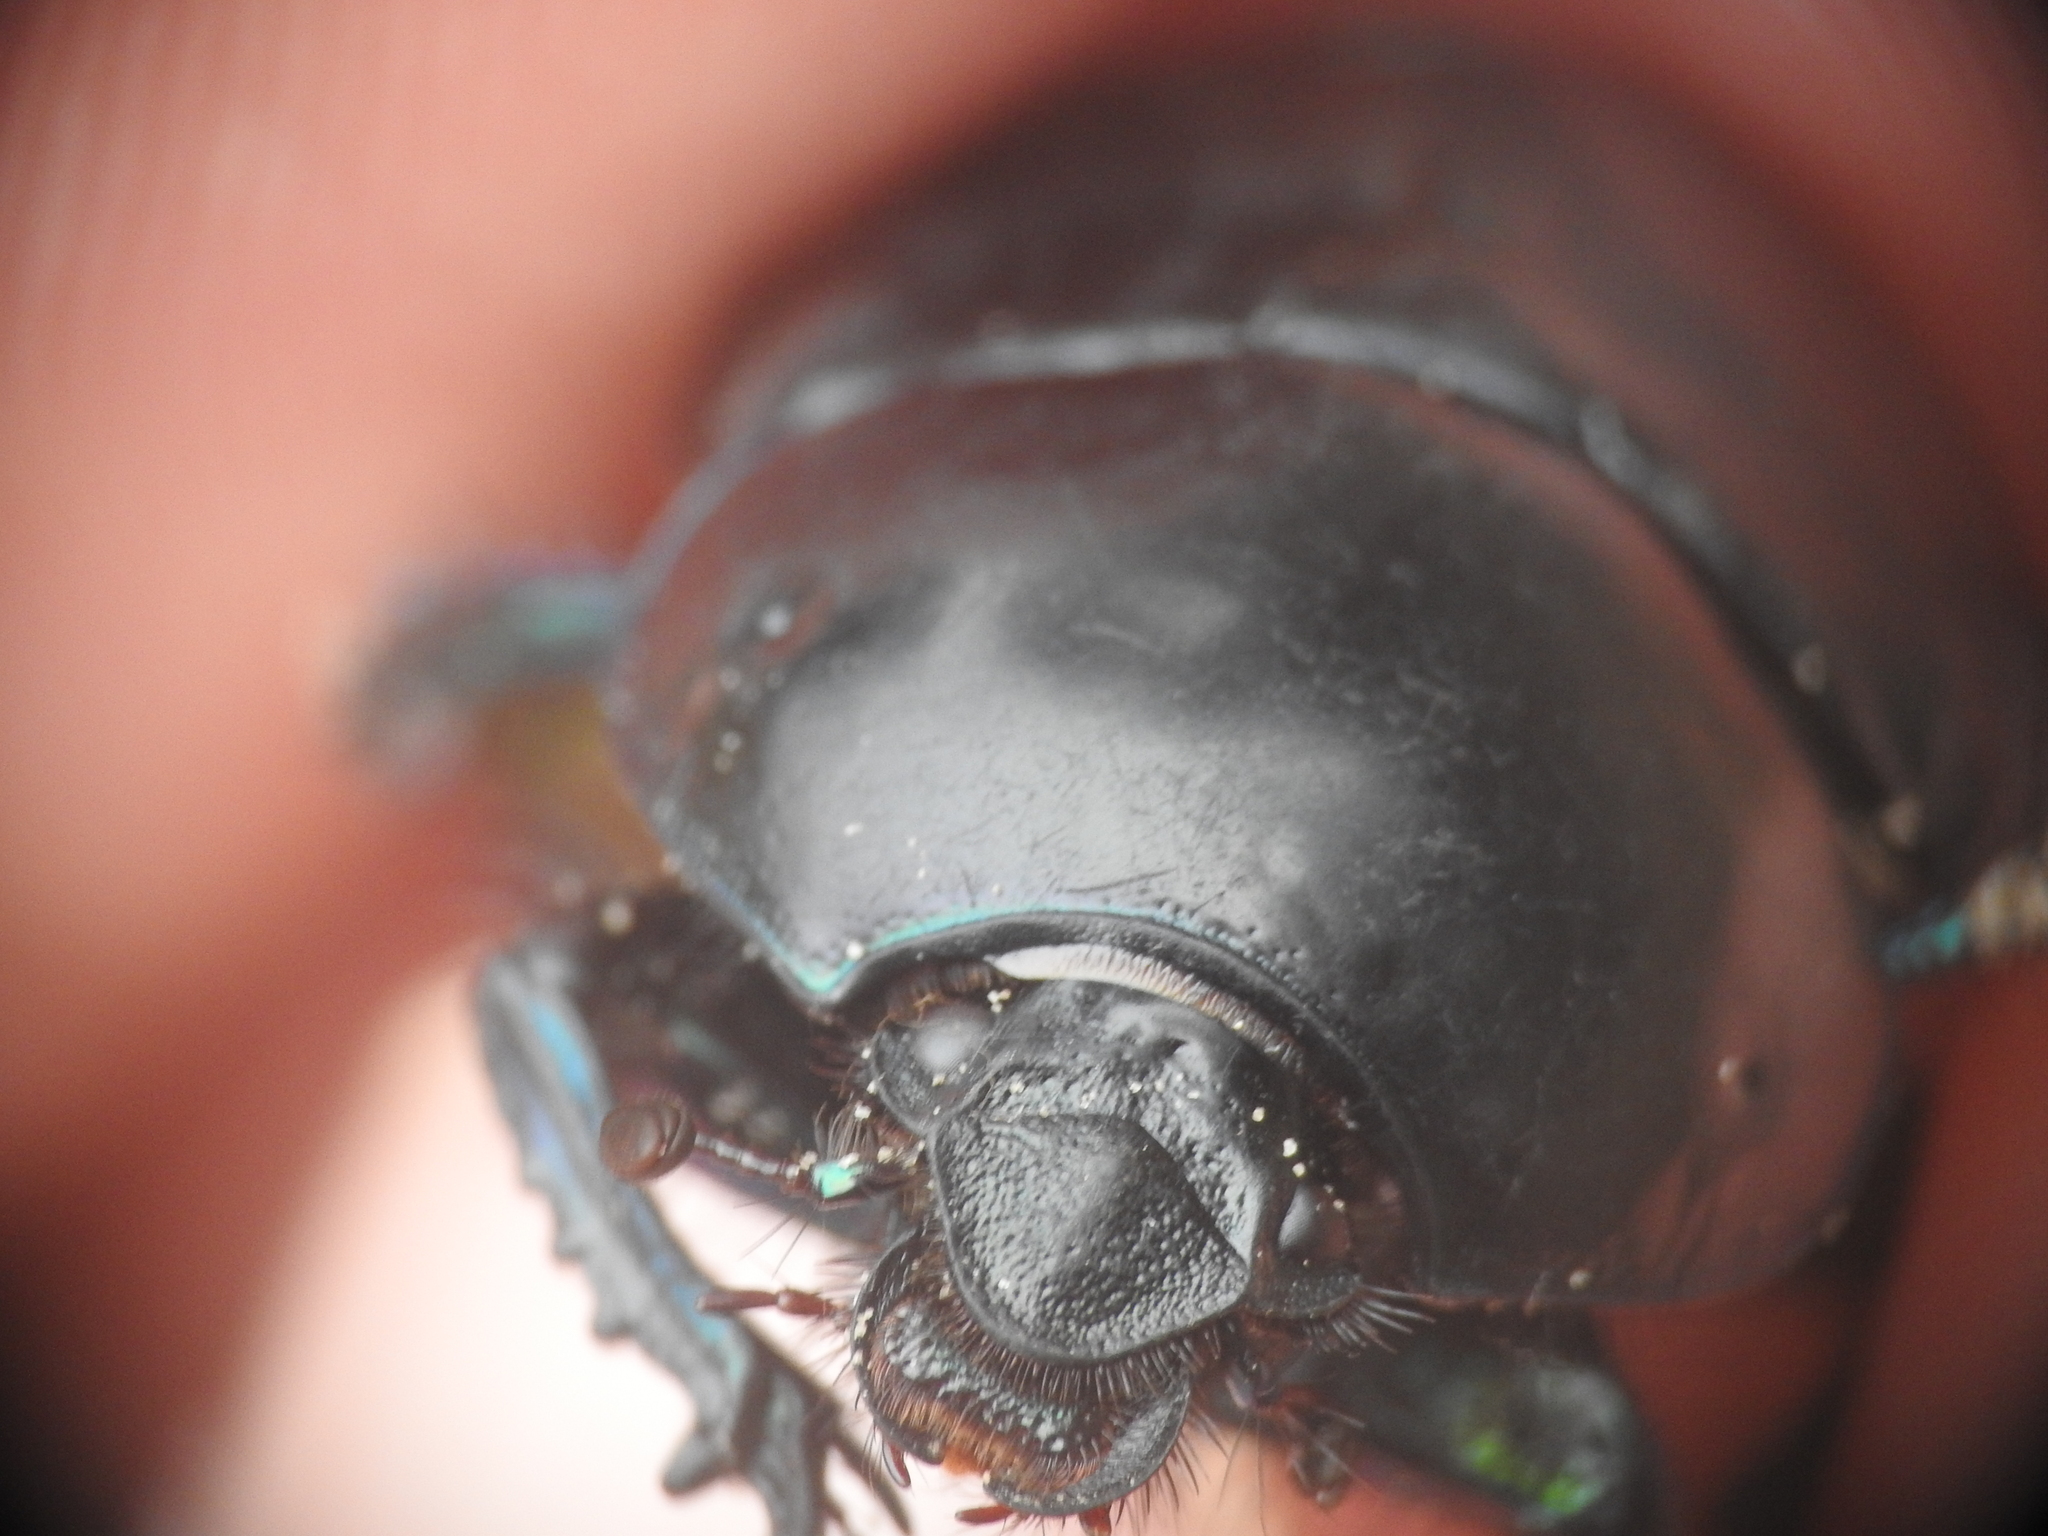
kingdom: Animalia
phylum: Arthropoda
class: Insecta
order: Coleoptera
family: Geotrupidae
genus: Sericotrupes
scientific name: Sericotrupes niger
